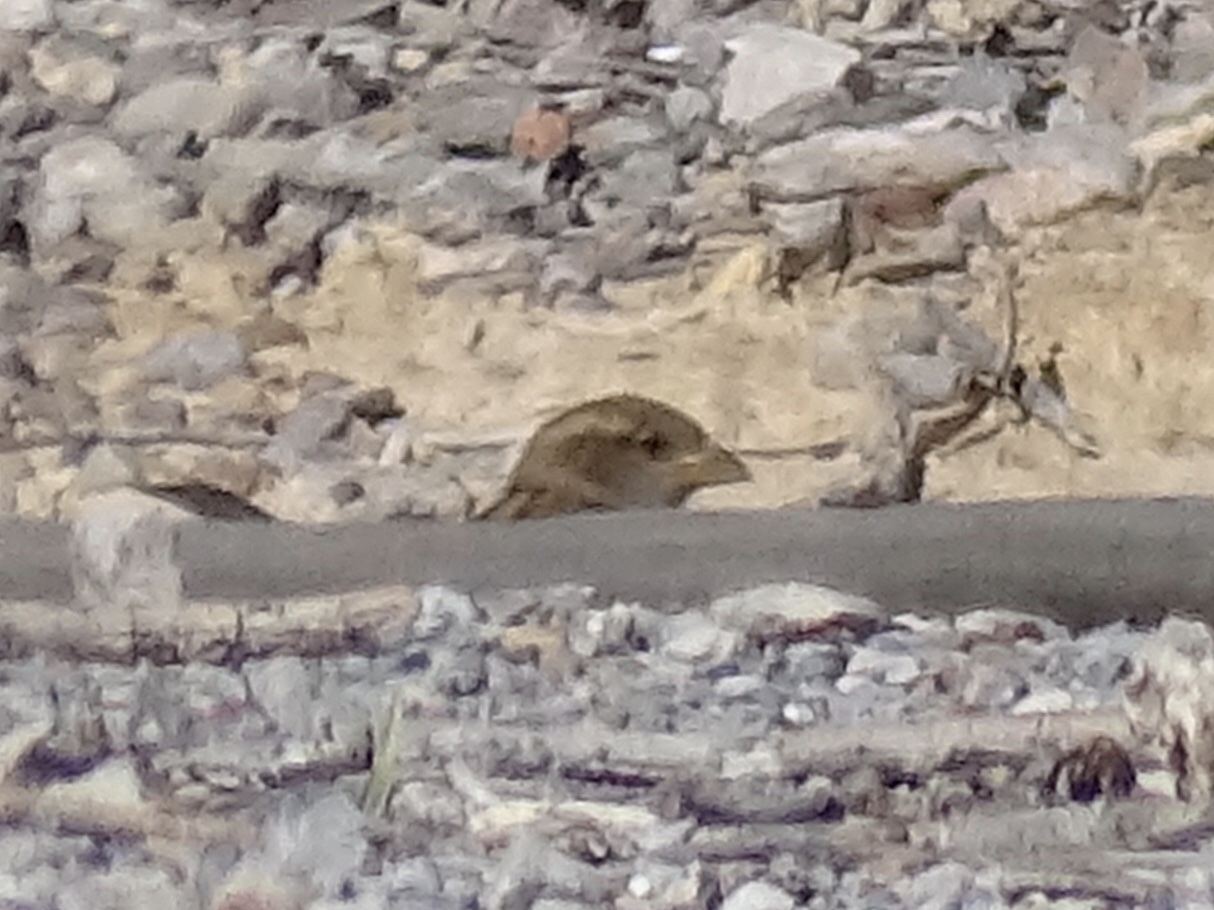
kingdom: Animalia
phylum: Chordata
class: Aves
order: Passeriformes
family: Passeridae
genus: Passer
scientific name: Passer domesticus
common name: House sparrow
